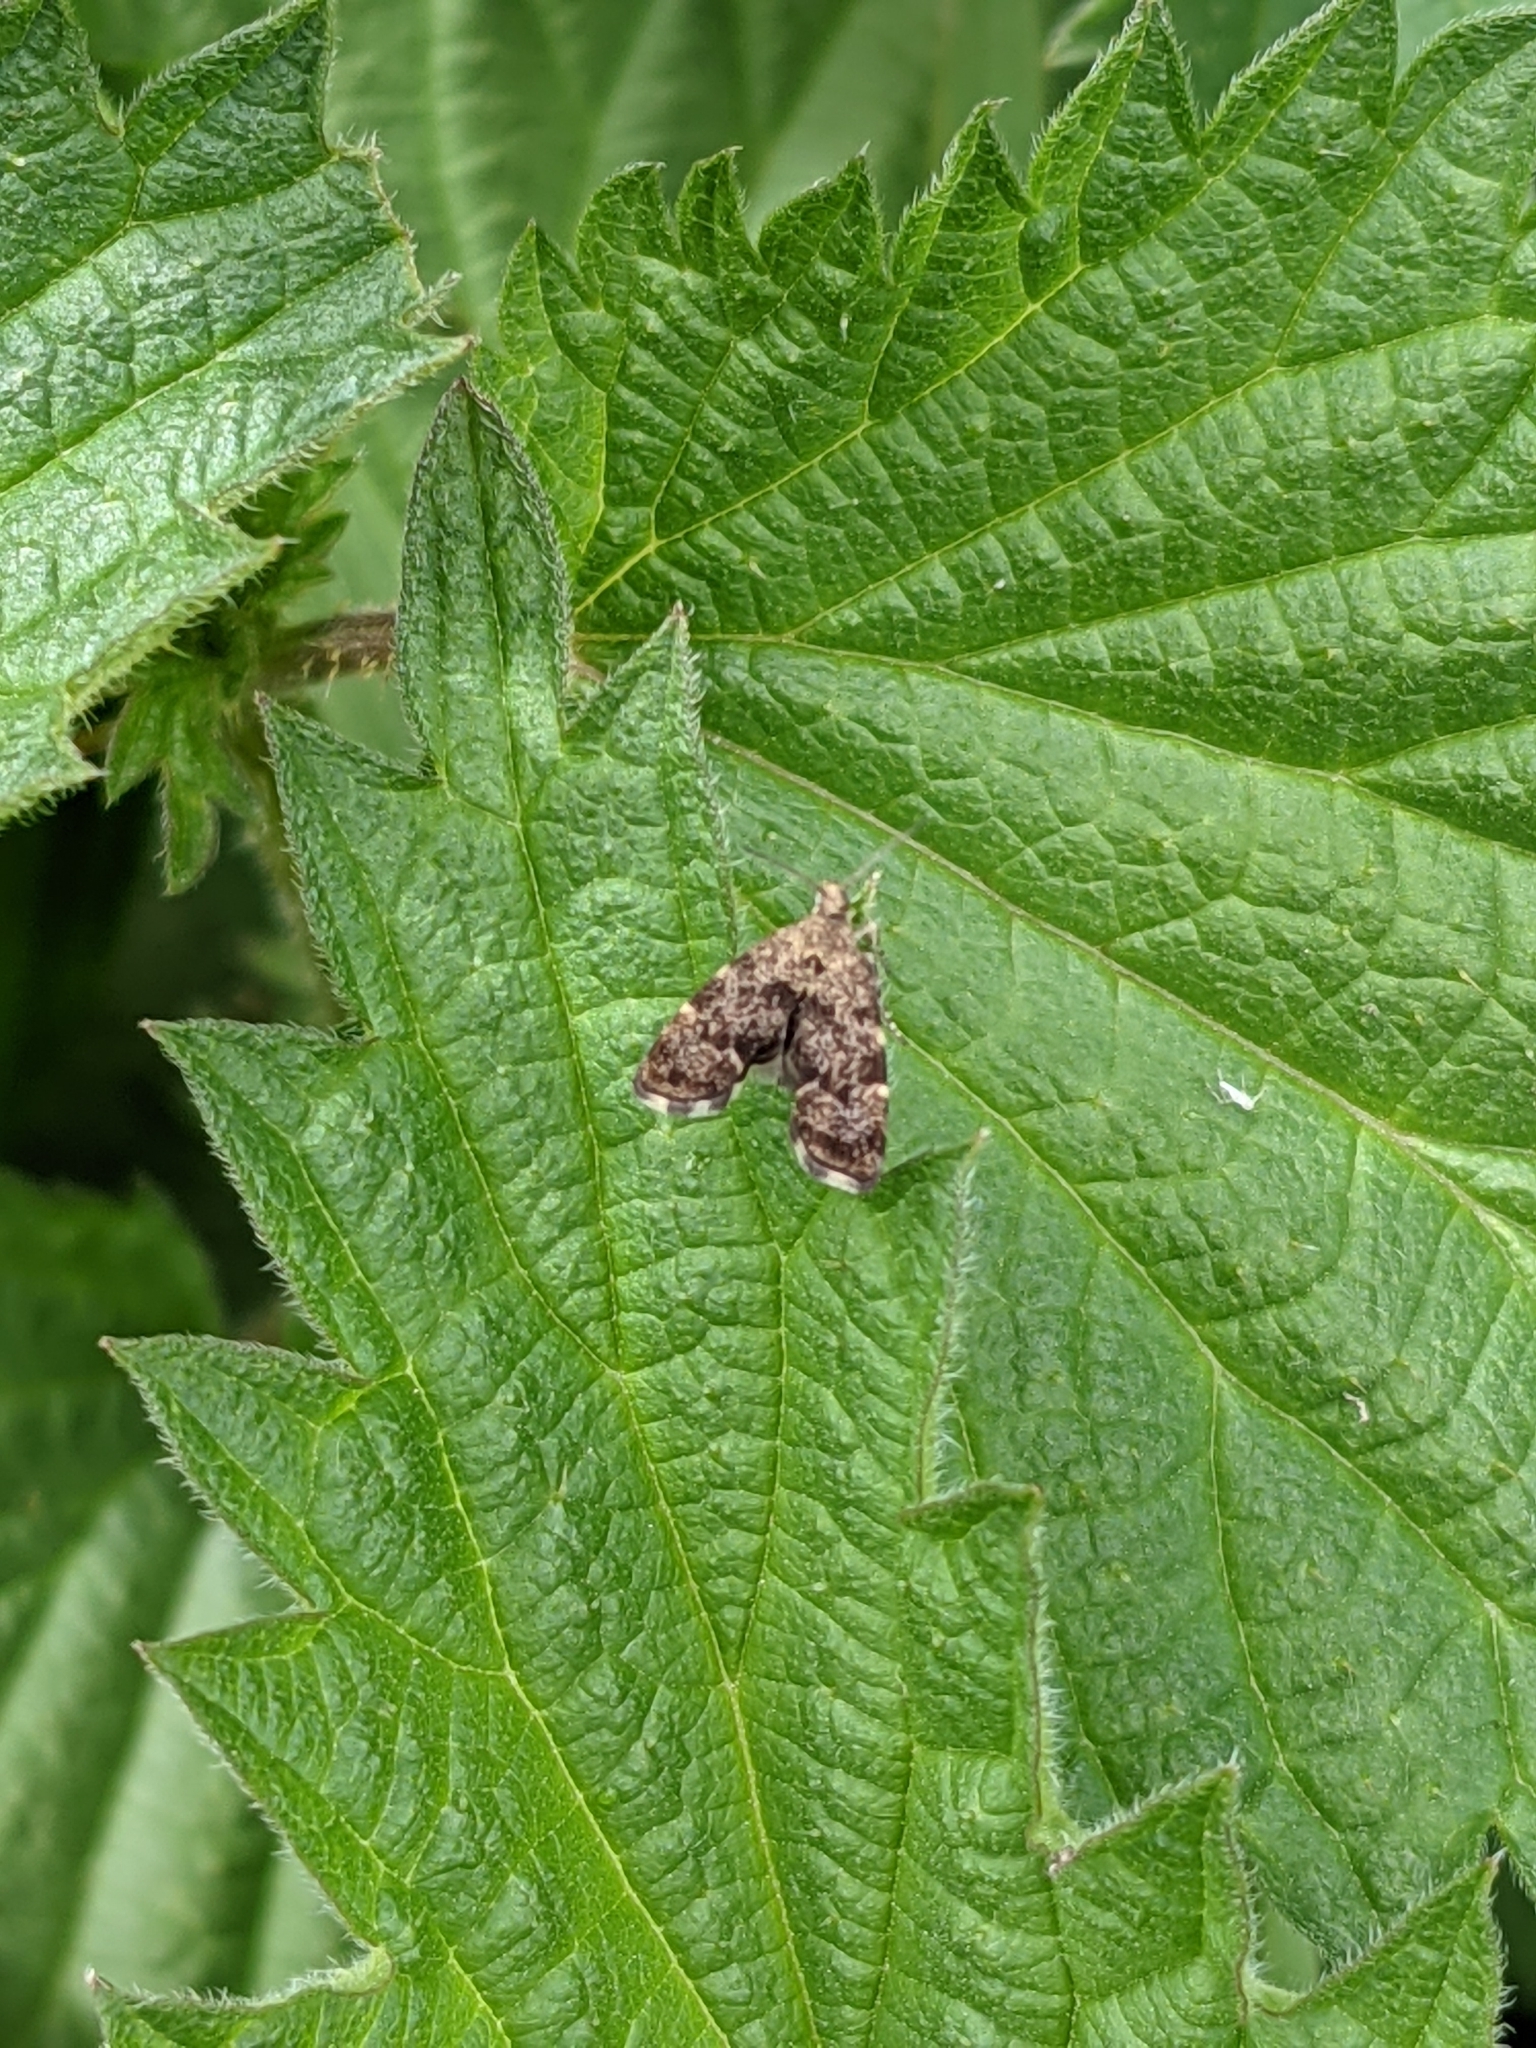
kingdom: Animalia
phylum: Arthropoda
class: Insecta
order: Lepidoptera
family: Choreutidae
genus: Anthophila
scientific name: Anthophila fabriciana
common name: Nettle-tap
